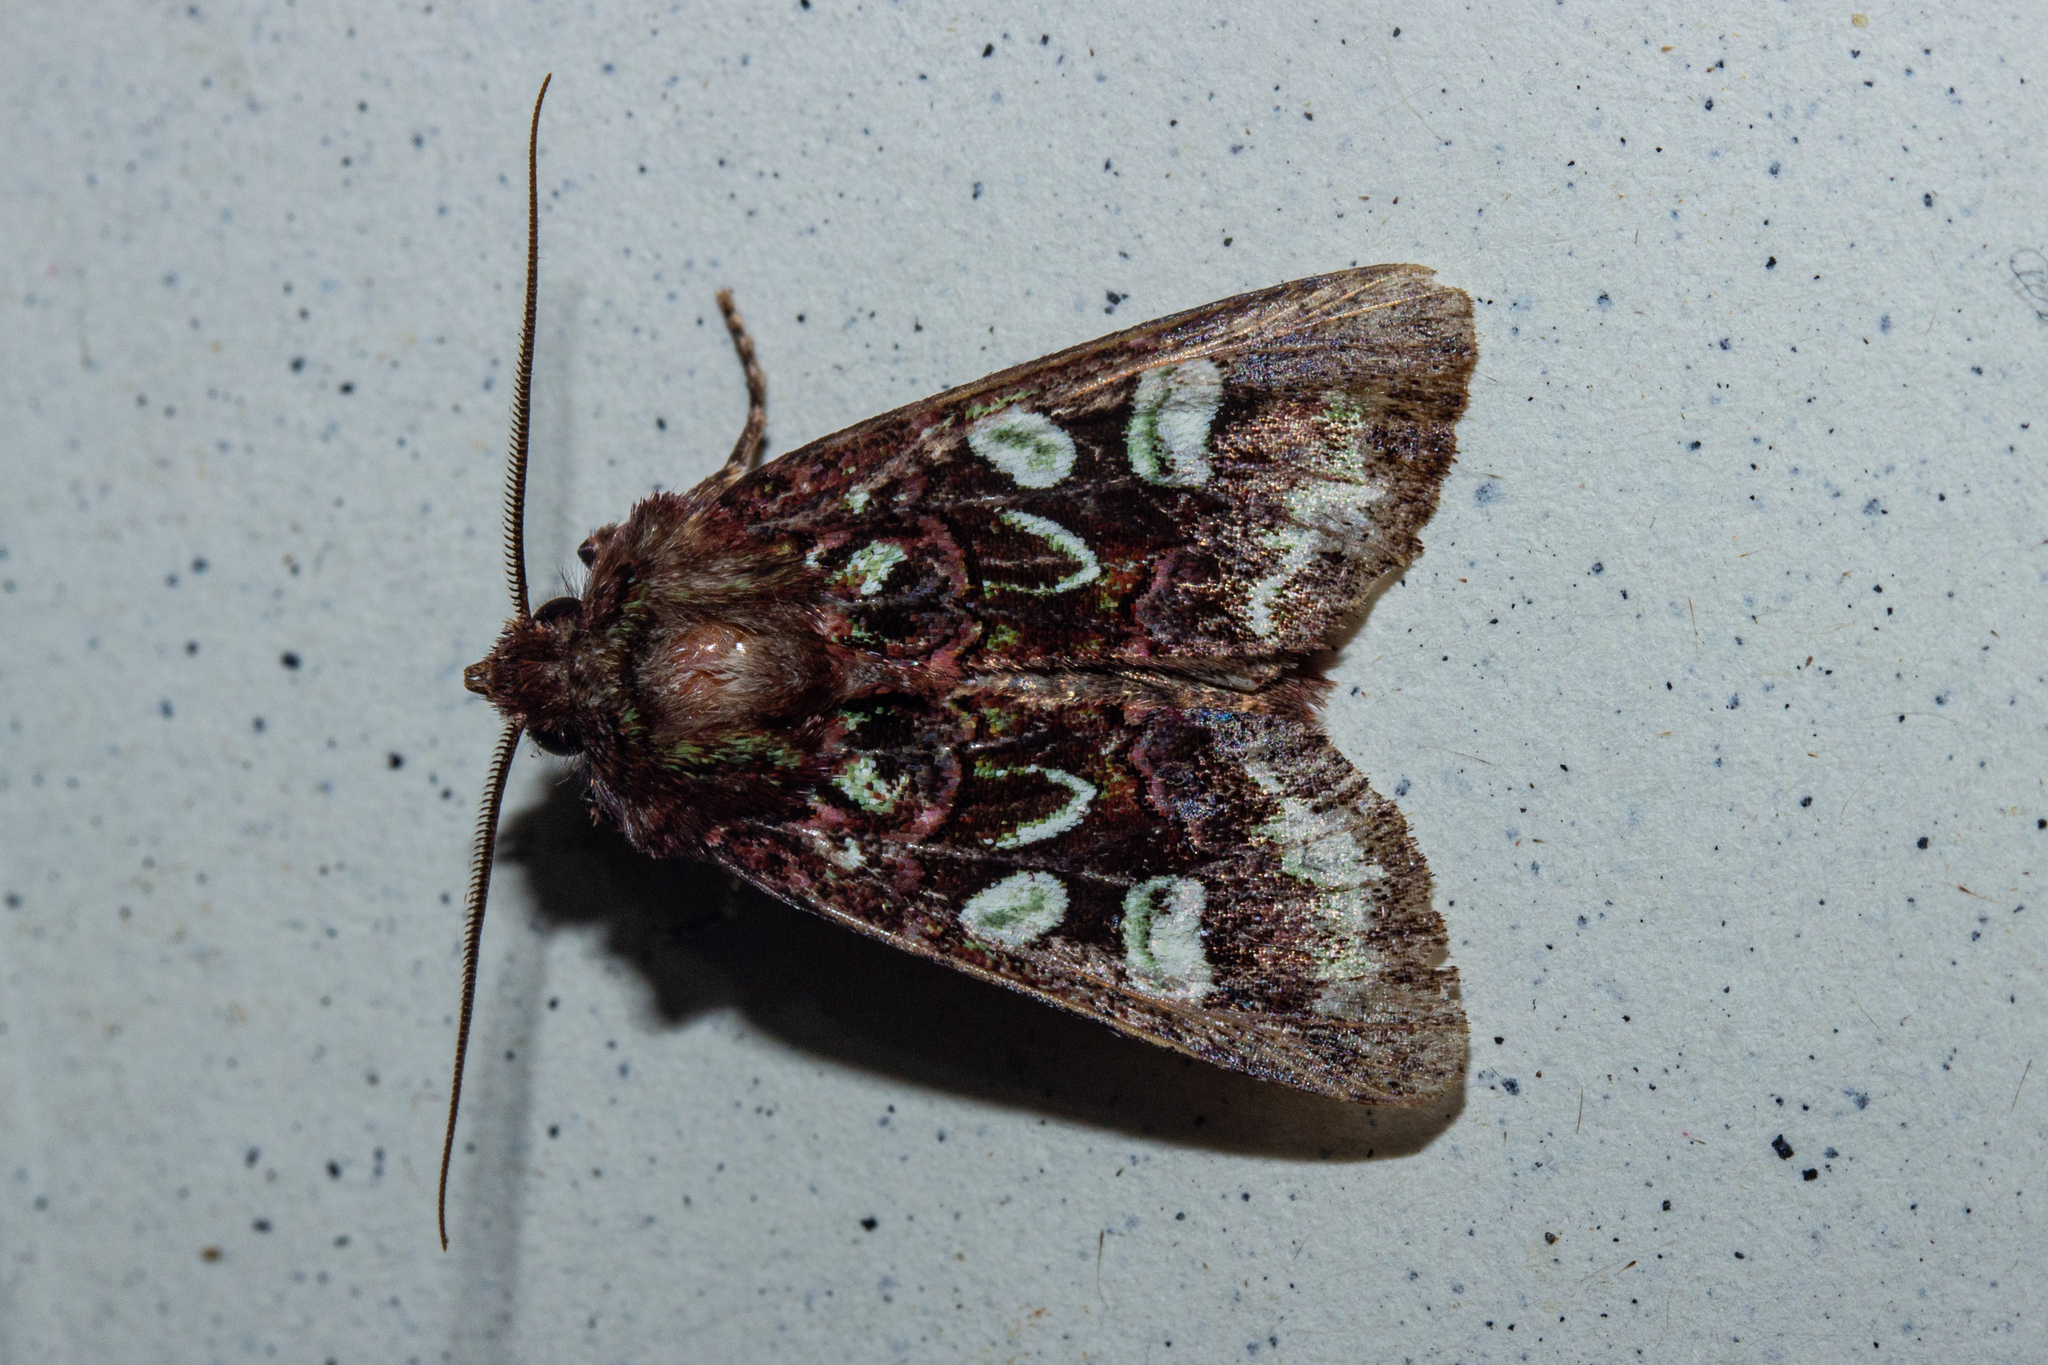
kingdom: Animalia
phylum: Arthropoda
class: Insecta
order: Lepidoptera
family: Noctuidae
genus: Ichneutica
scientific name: Ichneutica chlorodonta
